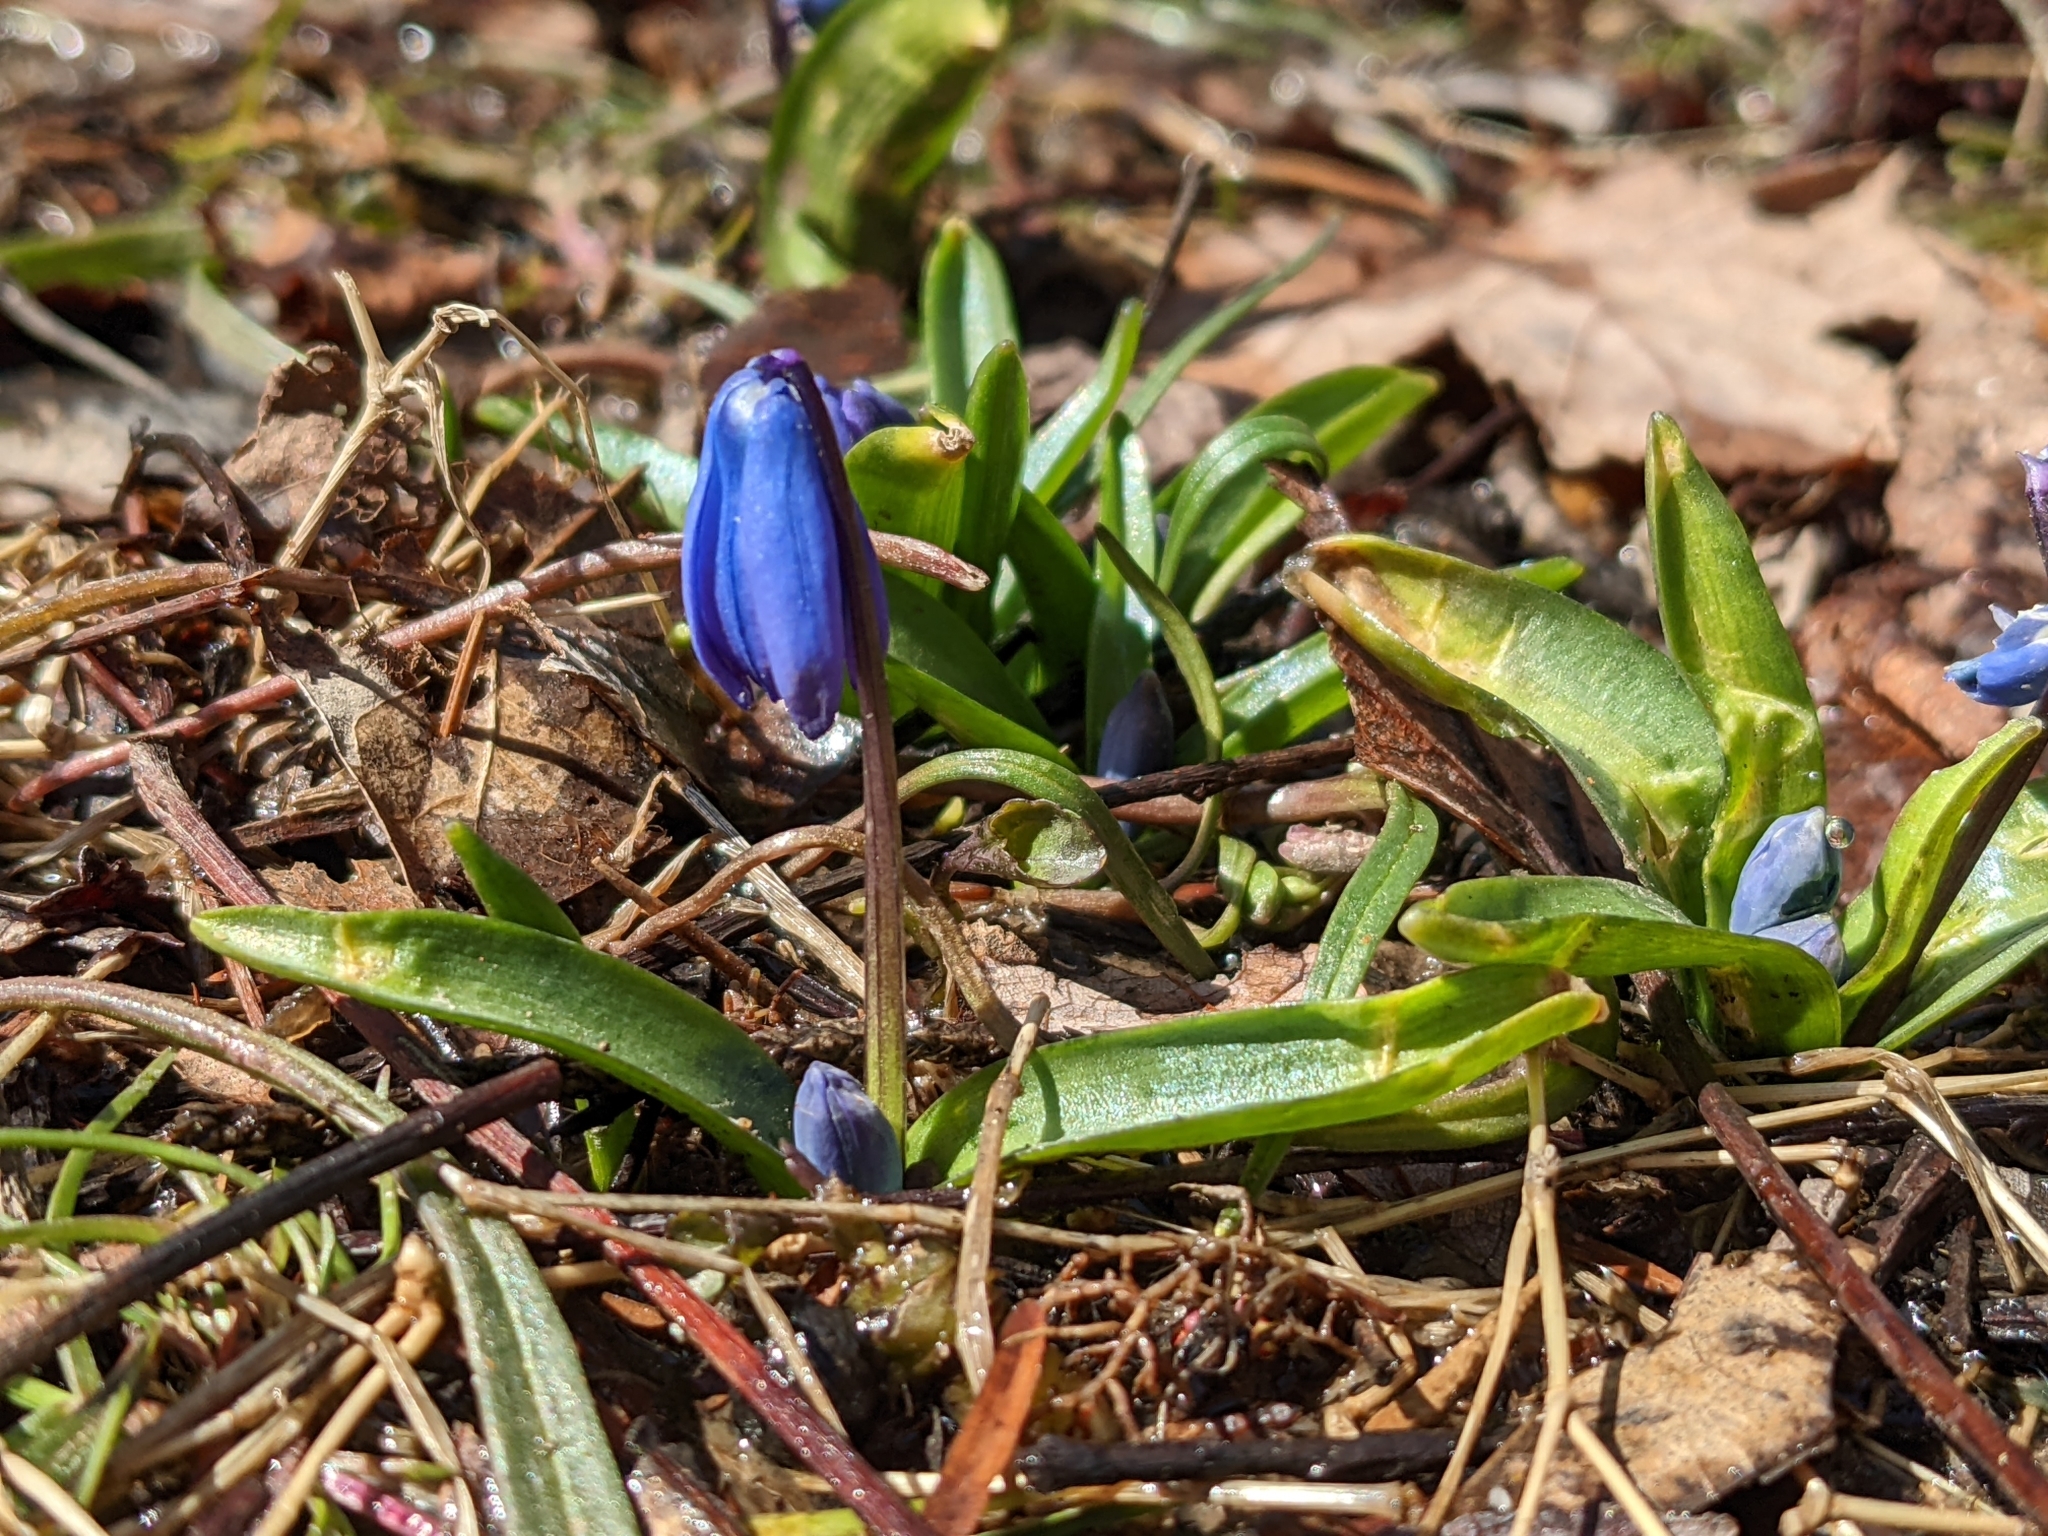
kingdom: Plantae
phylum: Tracheophyta
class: Liliopsida
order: Asparagales
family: Asparagaceae
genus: Scilla
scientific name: Scilla siberica
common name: Siberian squill
